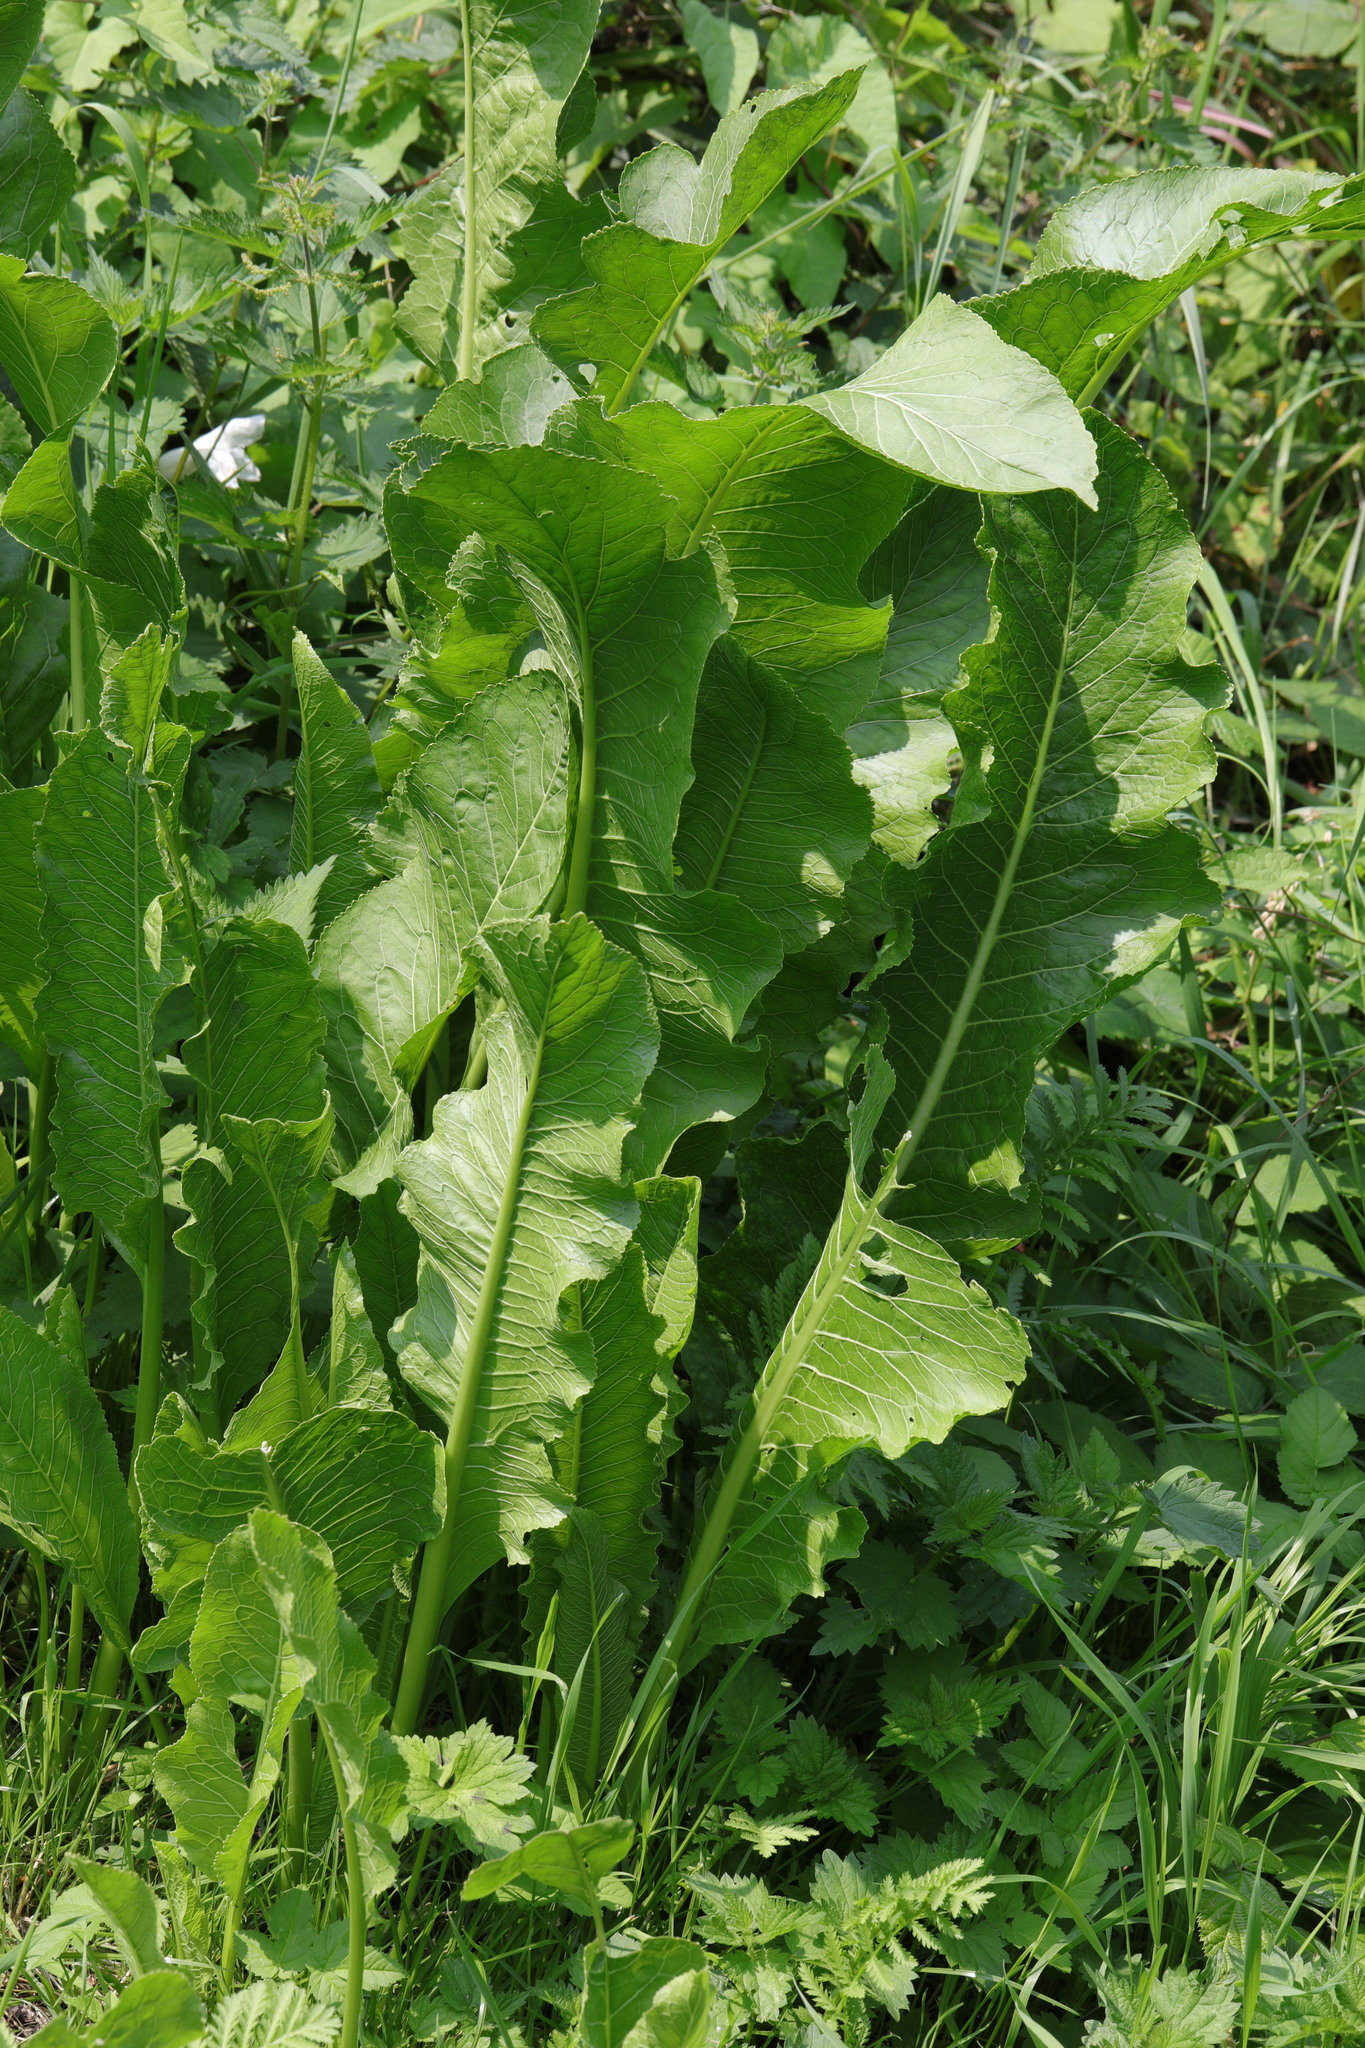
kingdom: Plantae
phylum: Tracheophyta
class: Magnoliopsida
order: Brassicales
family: Brassicaceae
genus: Armoracia
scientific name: Armoracia rusticana
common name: Horseradish
